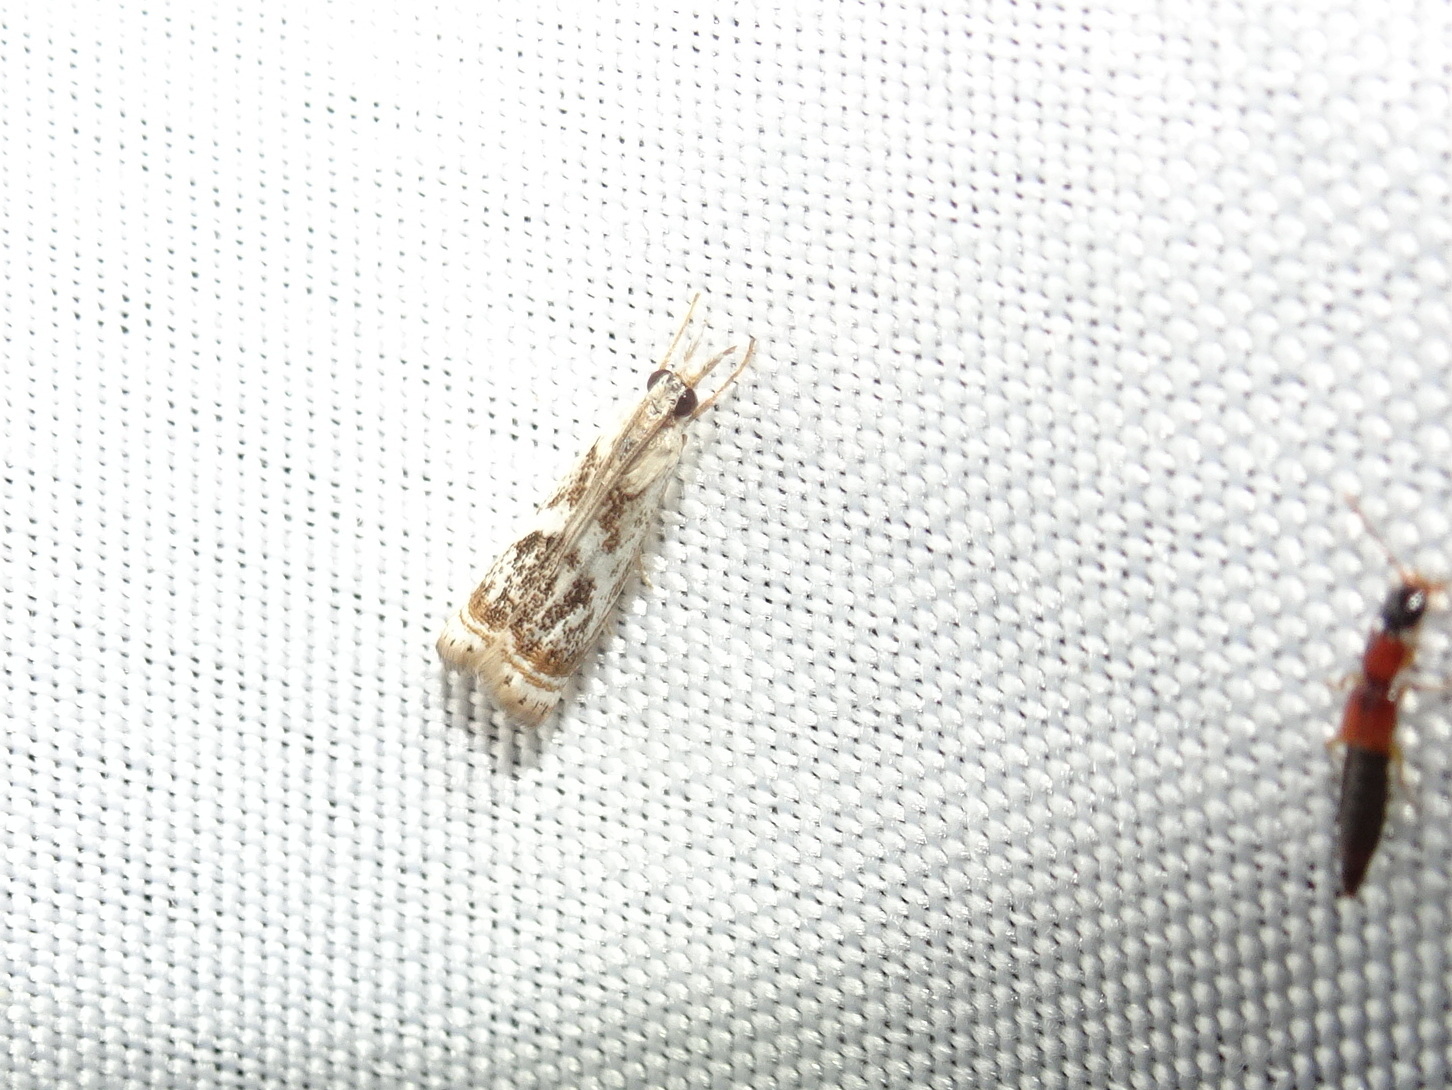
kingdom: Animalia
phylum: Arthropoda
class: Insecta
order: Lepidoptera
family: Crambidae
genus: Microcrambus
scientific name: Microcrambus elegans
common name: Elegant grass-veneer
